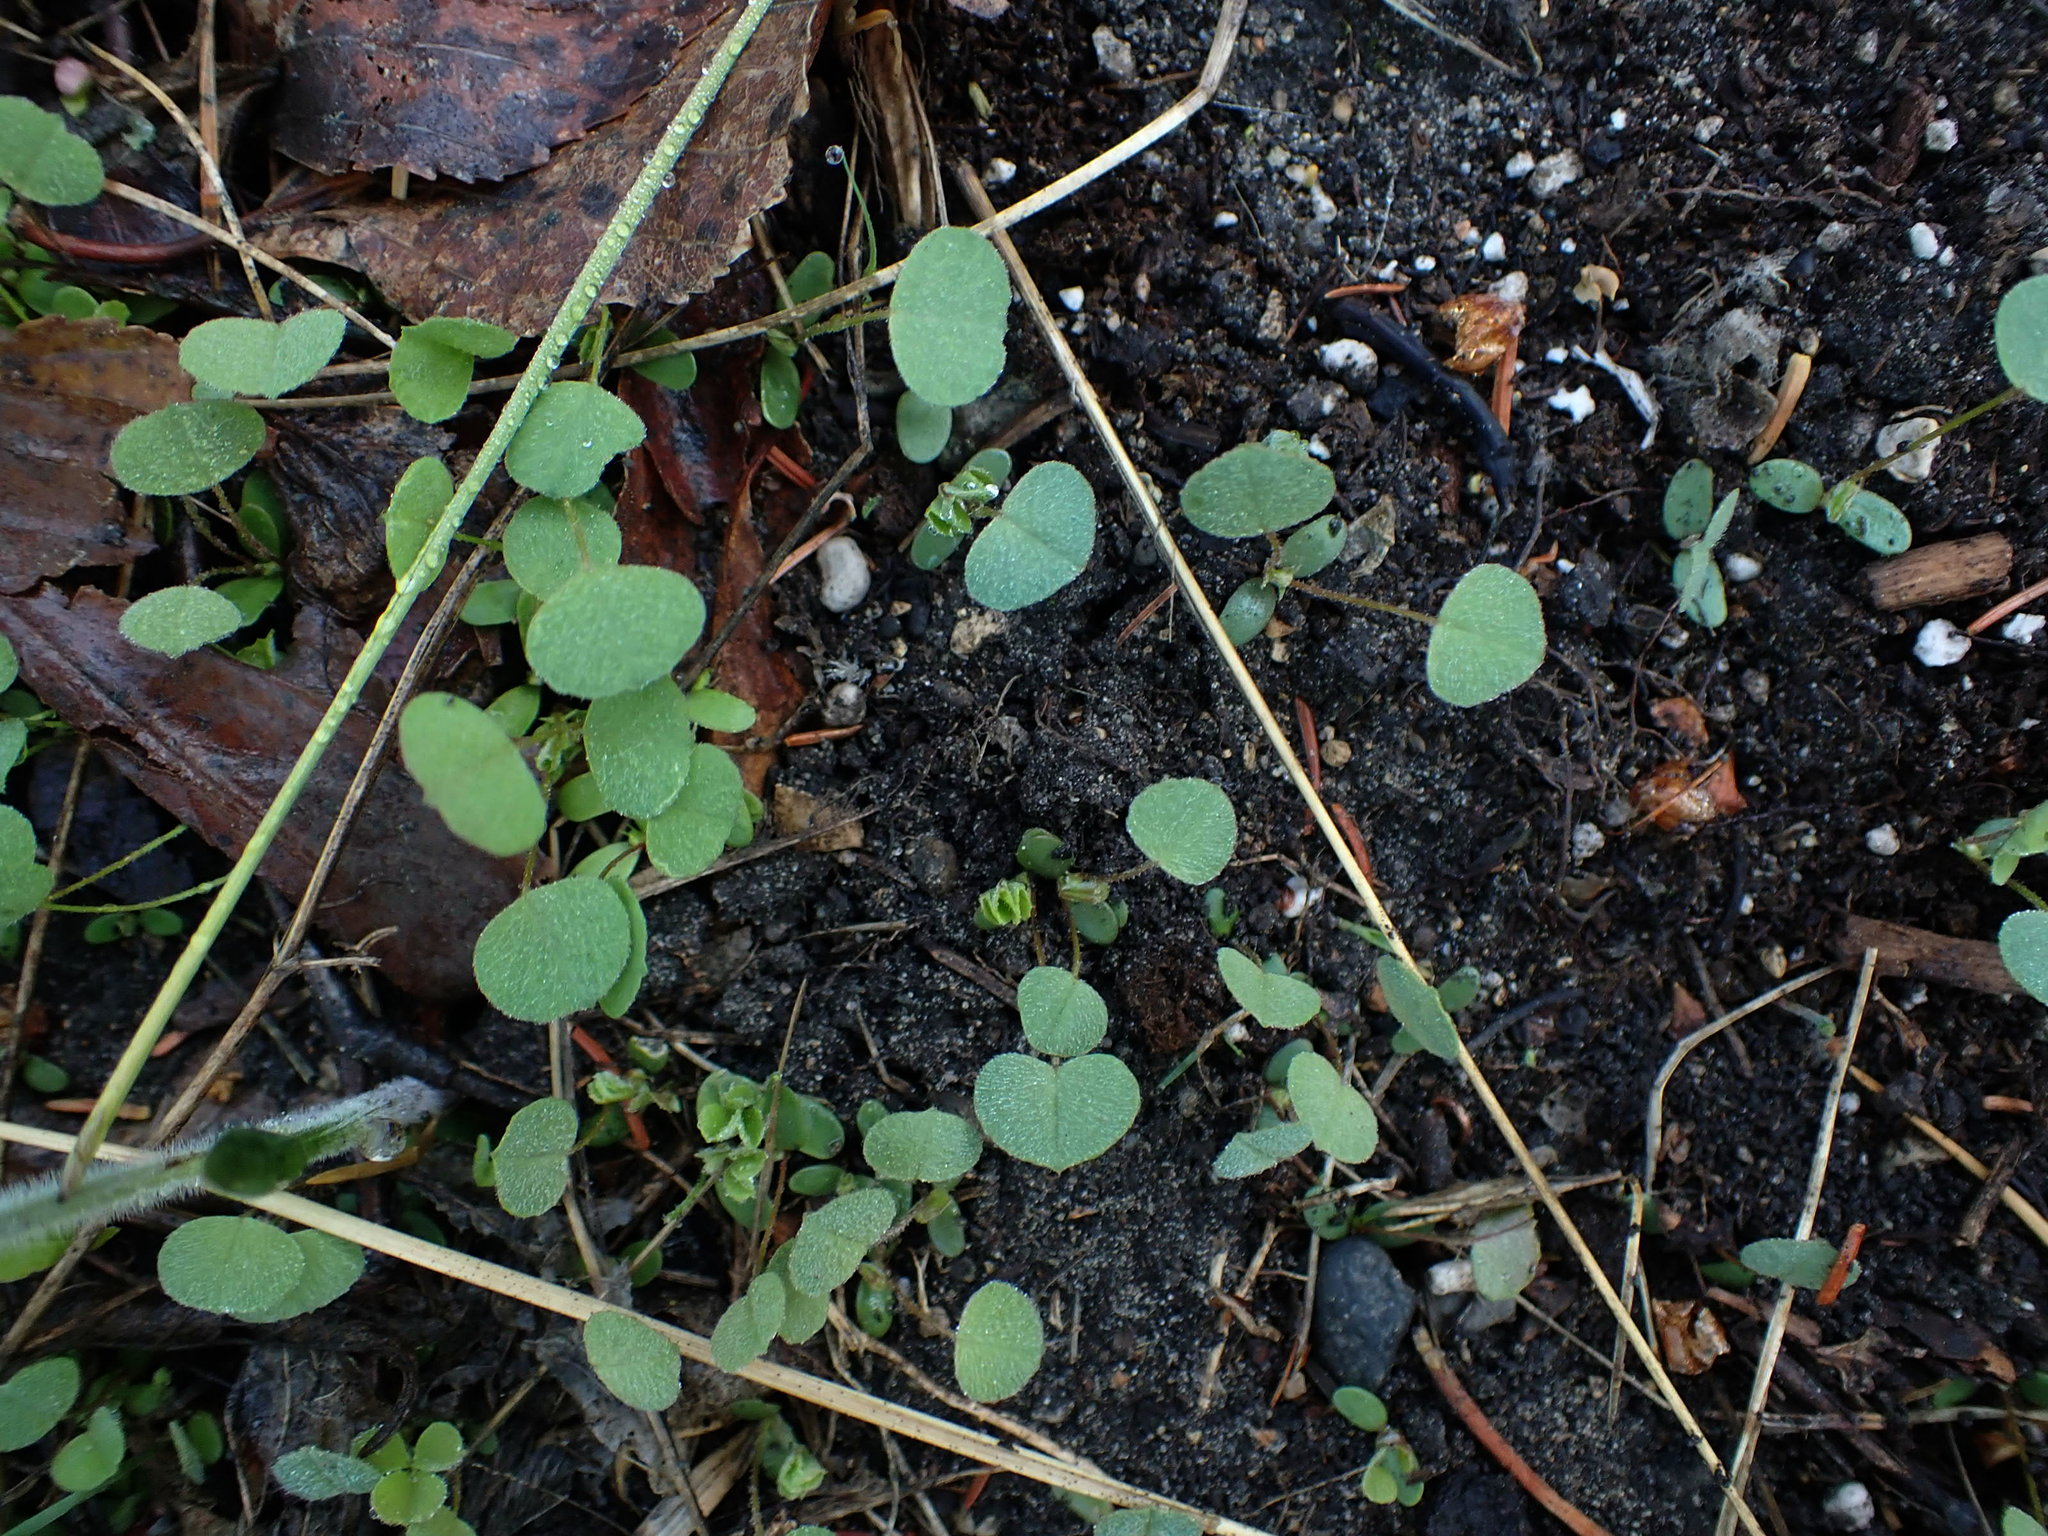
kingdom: Plantae
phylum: Tracheophyta
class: Magnoliopsida
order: Fabales
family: Fabaceae
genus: Medicago
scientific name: Medicago lupulina
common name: Black medick
